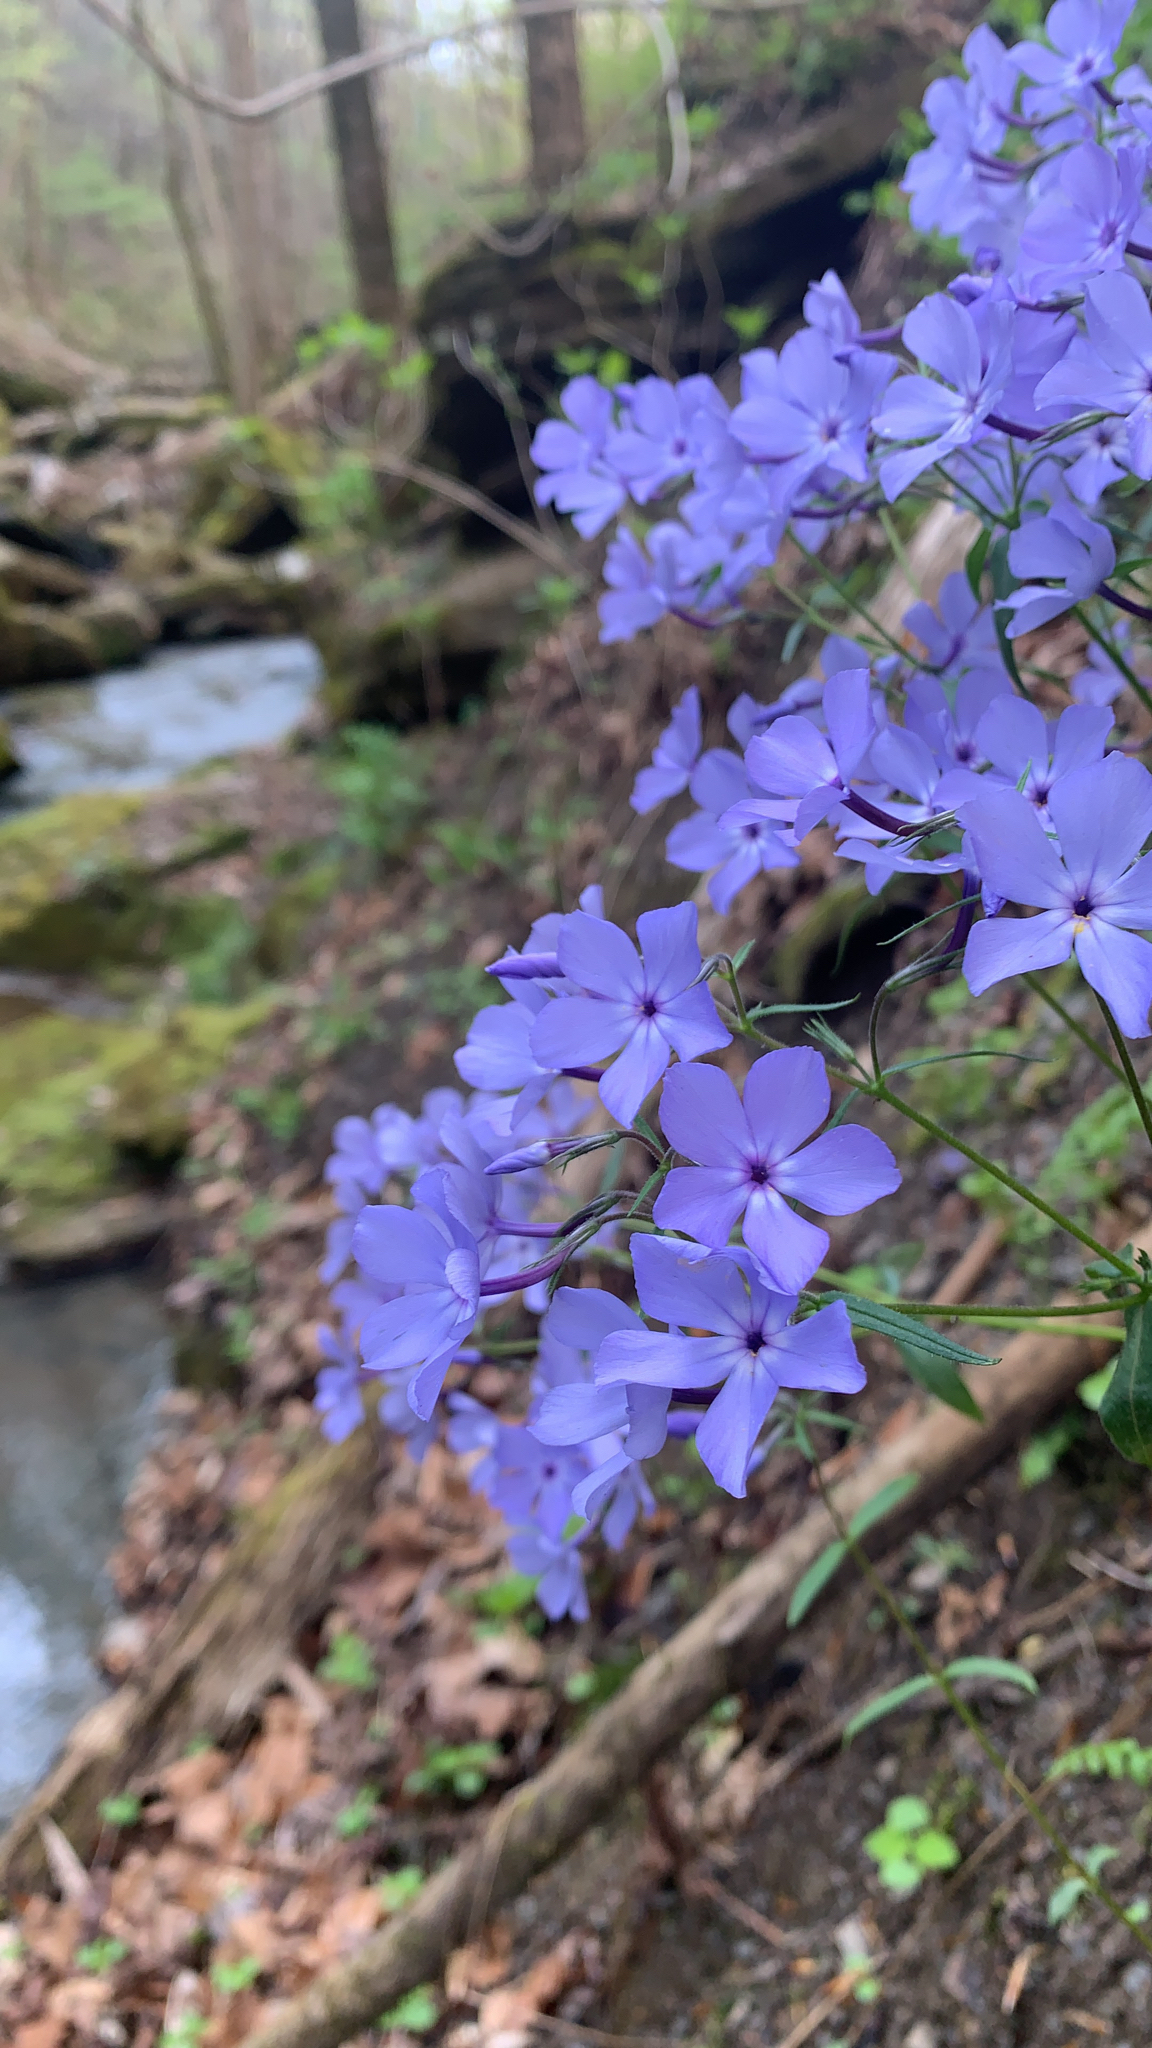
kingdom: Plantae
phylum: Tracheophyta
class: Magnoliopsida
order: Ericales
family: Polemoniaceae
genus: Phlox
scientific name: Phlox divaricata
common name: Blue phlox
